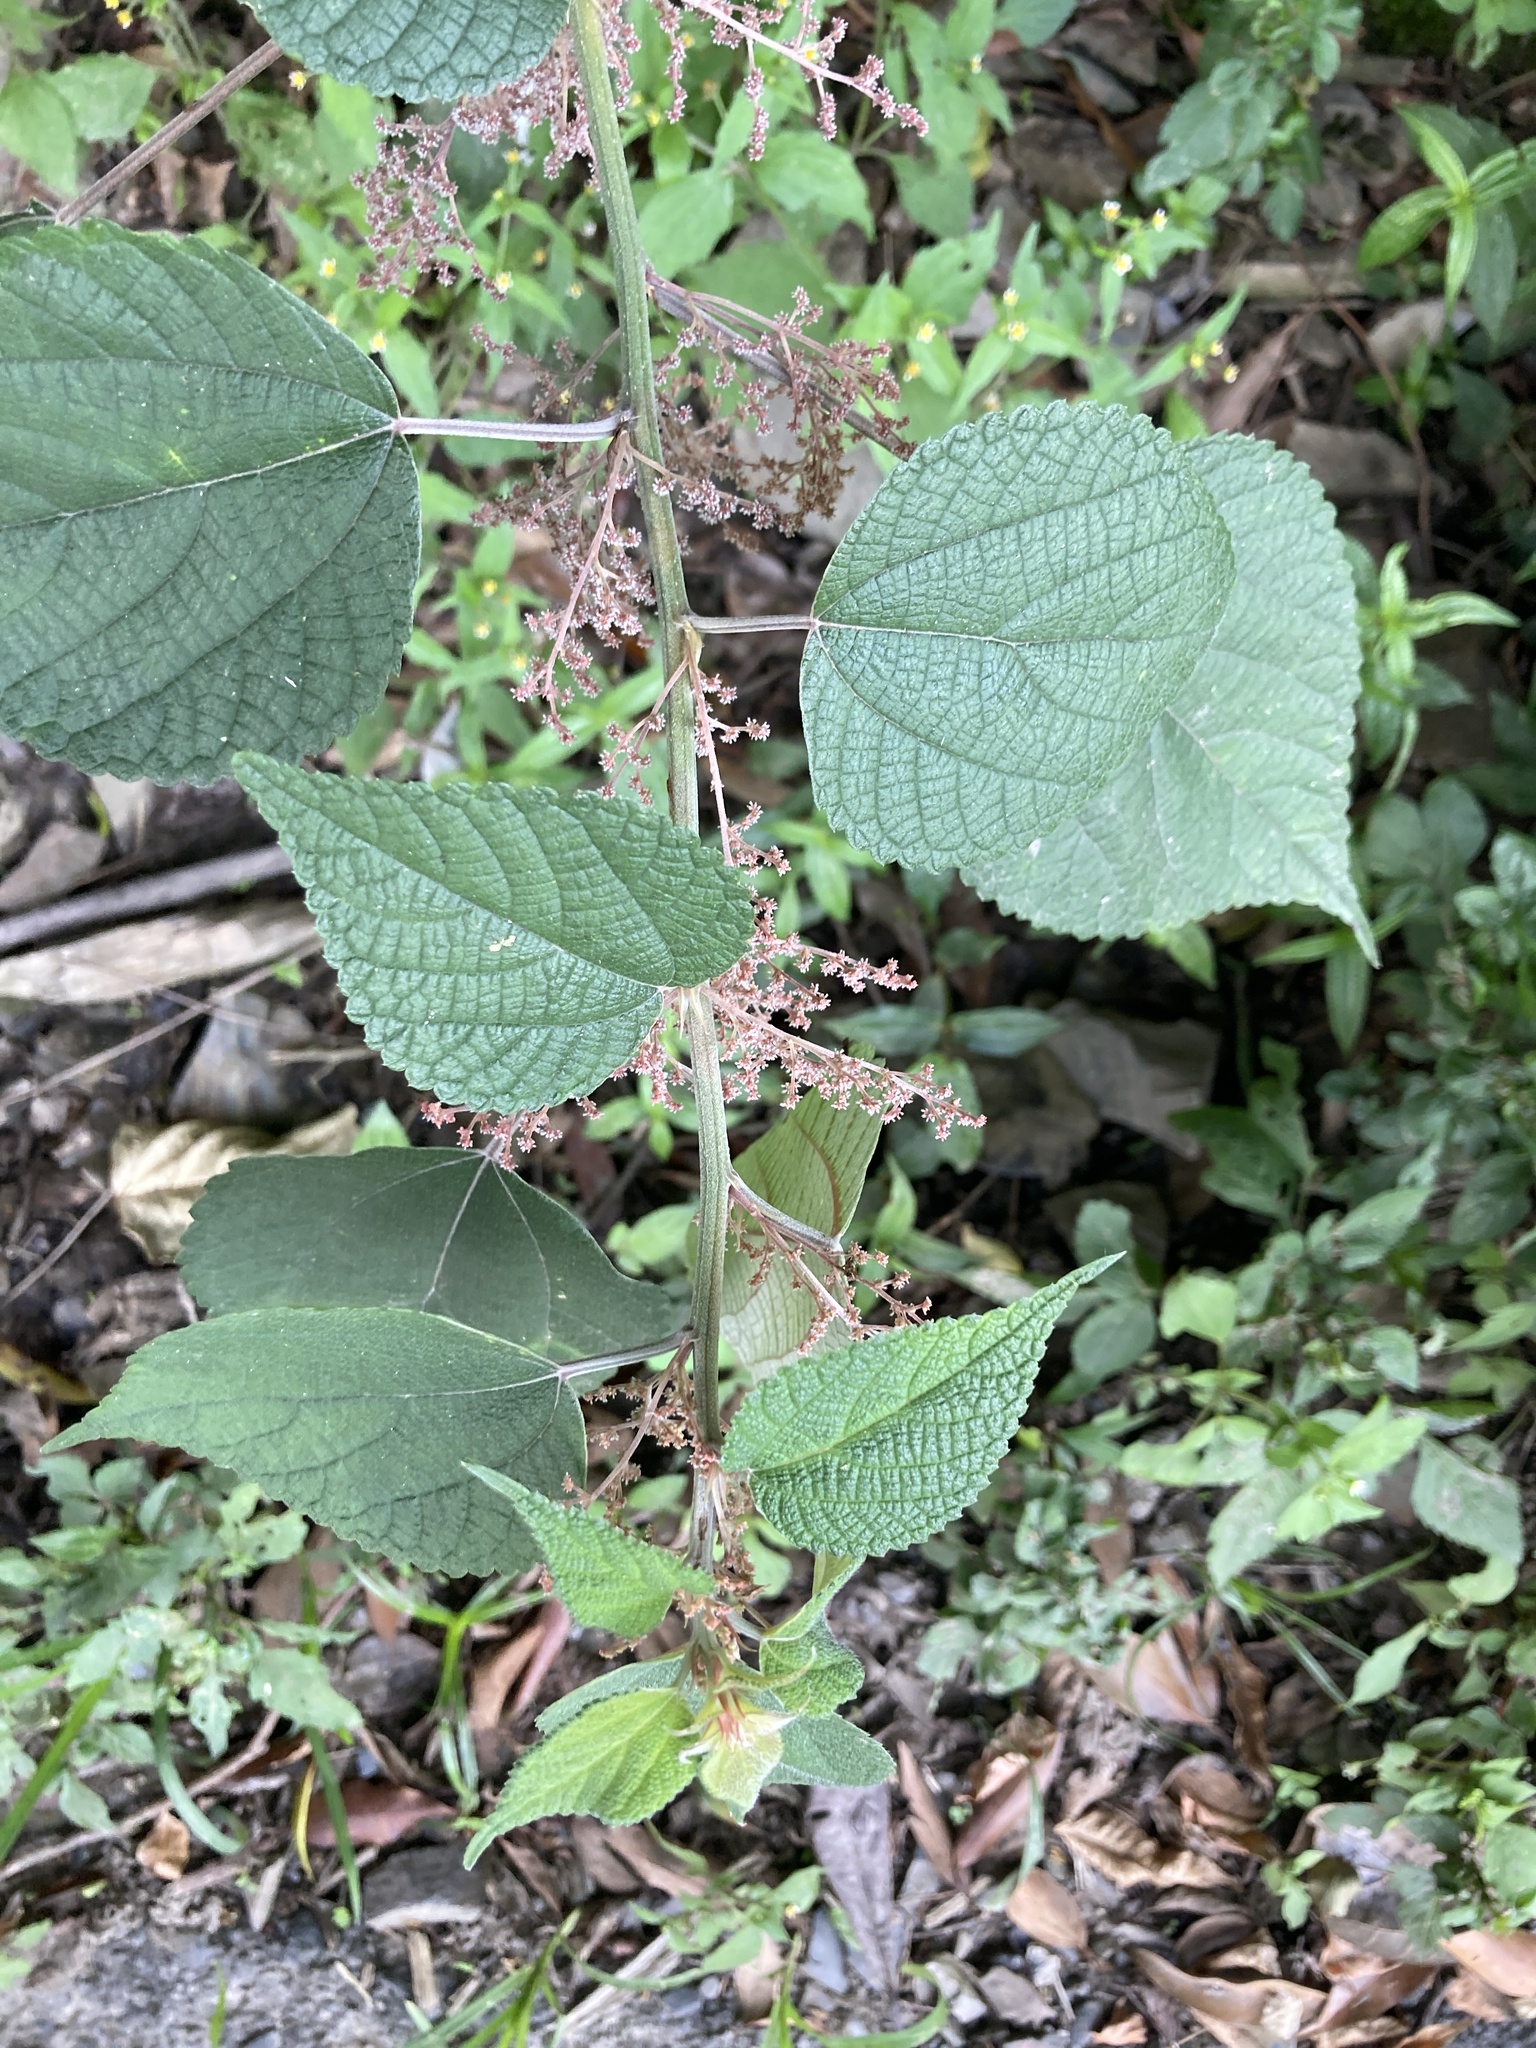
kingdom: Plantae
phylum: Tracheophyta
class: Magnoliopsida
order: Rosales
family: Urticaceae
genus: Boehmeria
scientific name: Boehmeria nivea
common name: Ramie chinese grass
